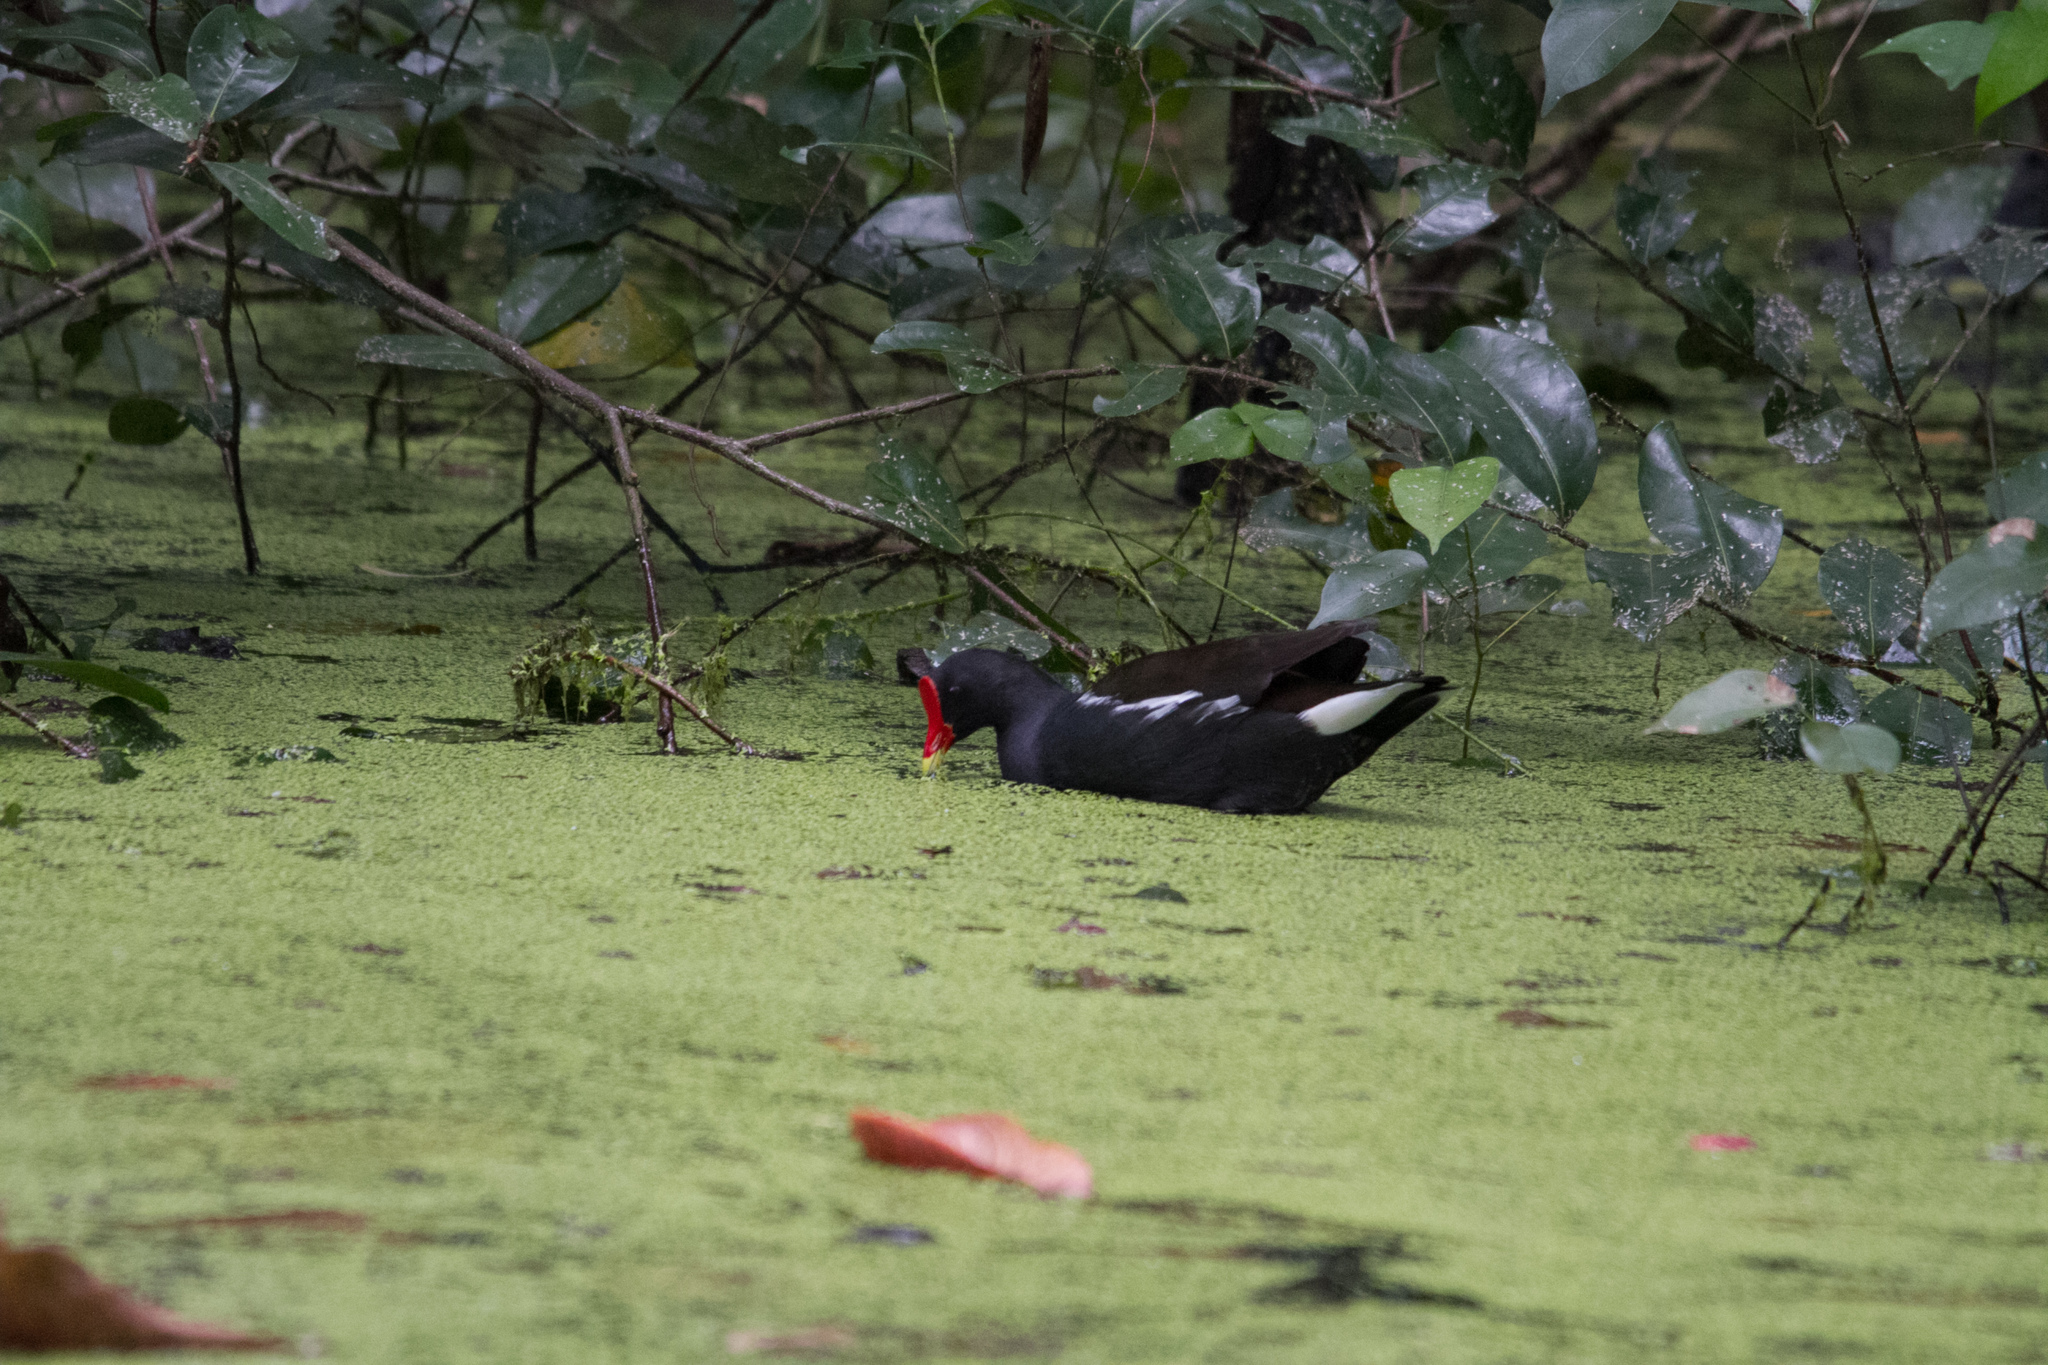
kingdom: Animalia
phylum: Chordata
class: Aves
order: Gruiformes
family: Rallidae
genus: Gallinula
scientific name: Gallinula chloropus
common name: Common moorhen
